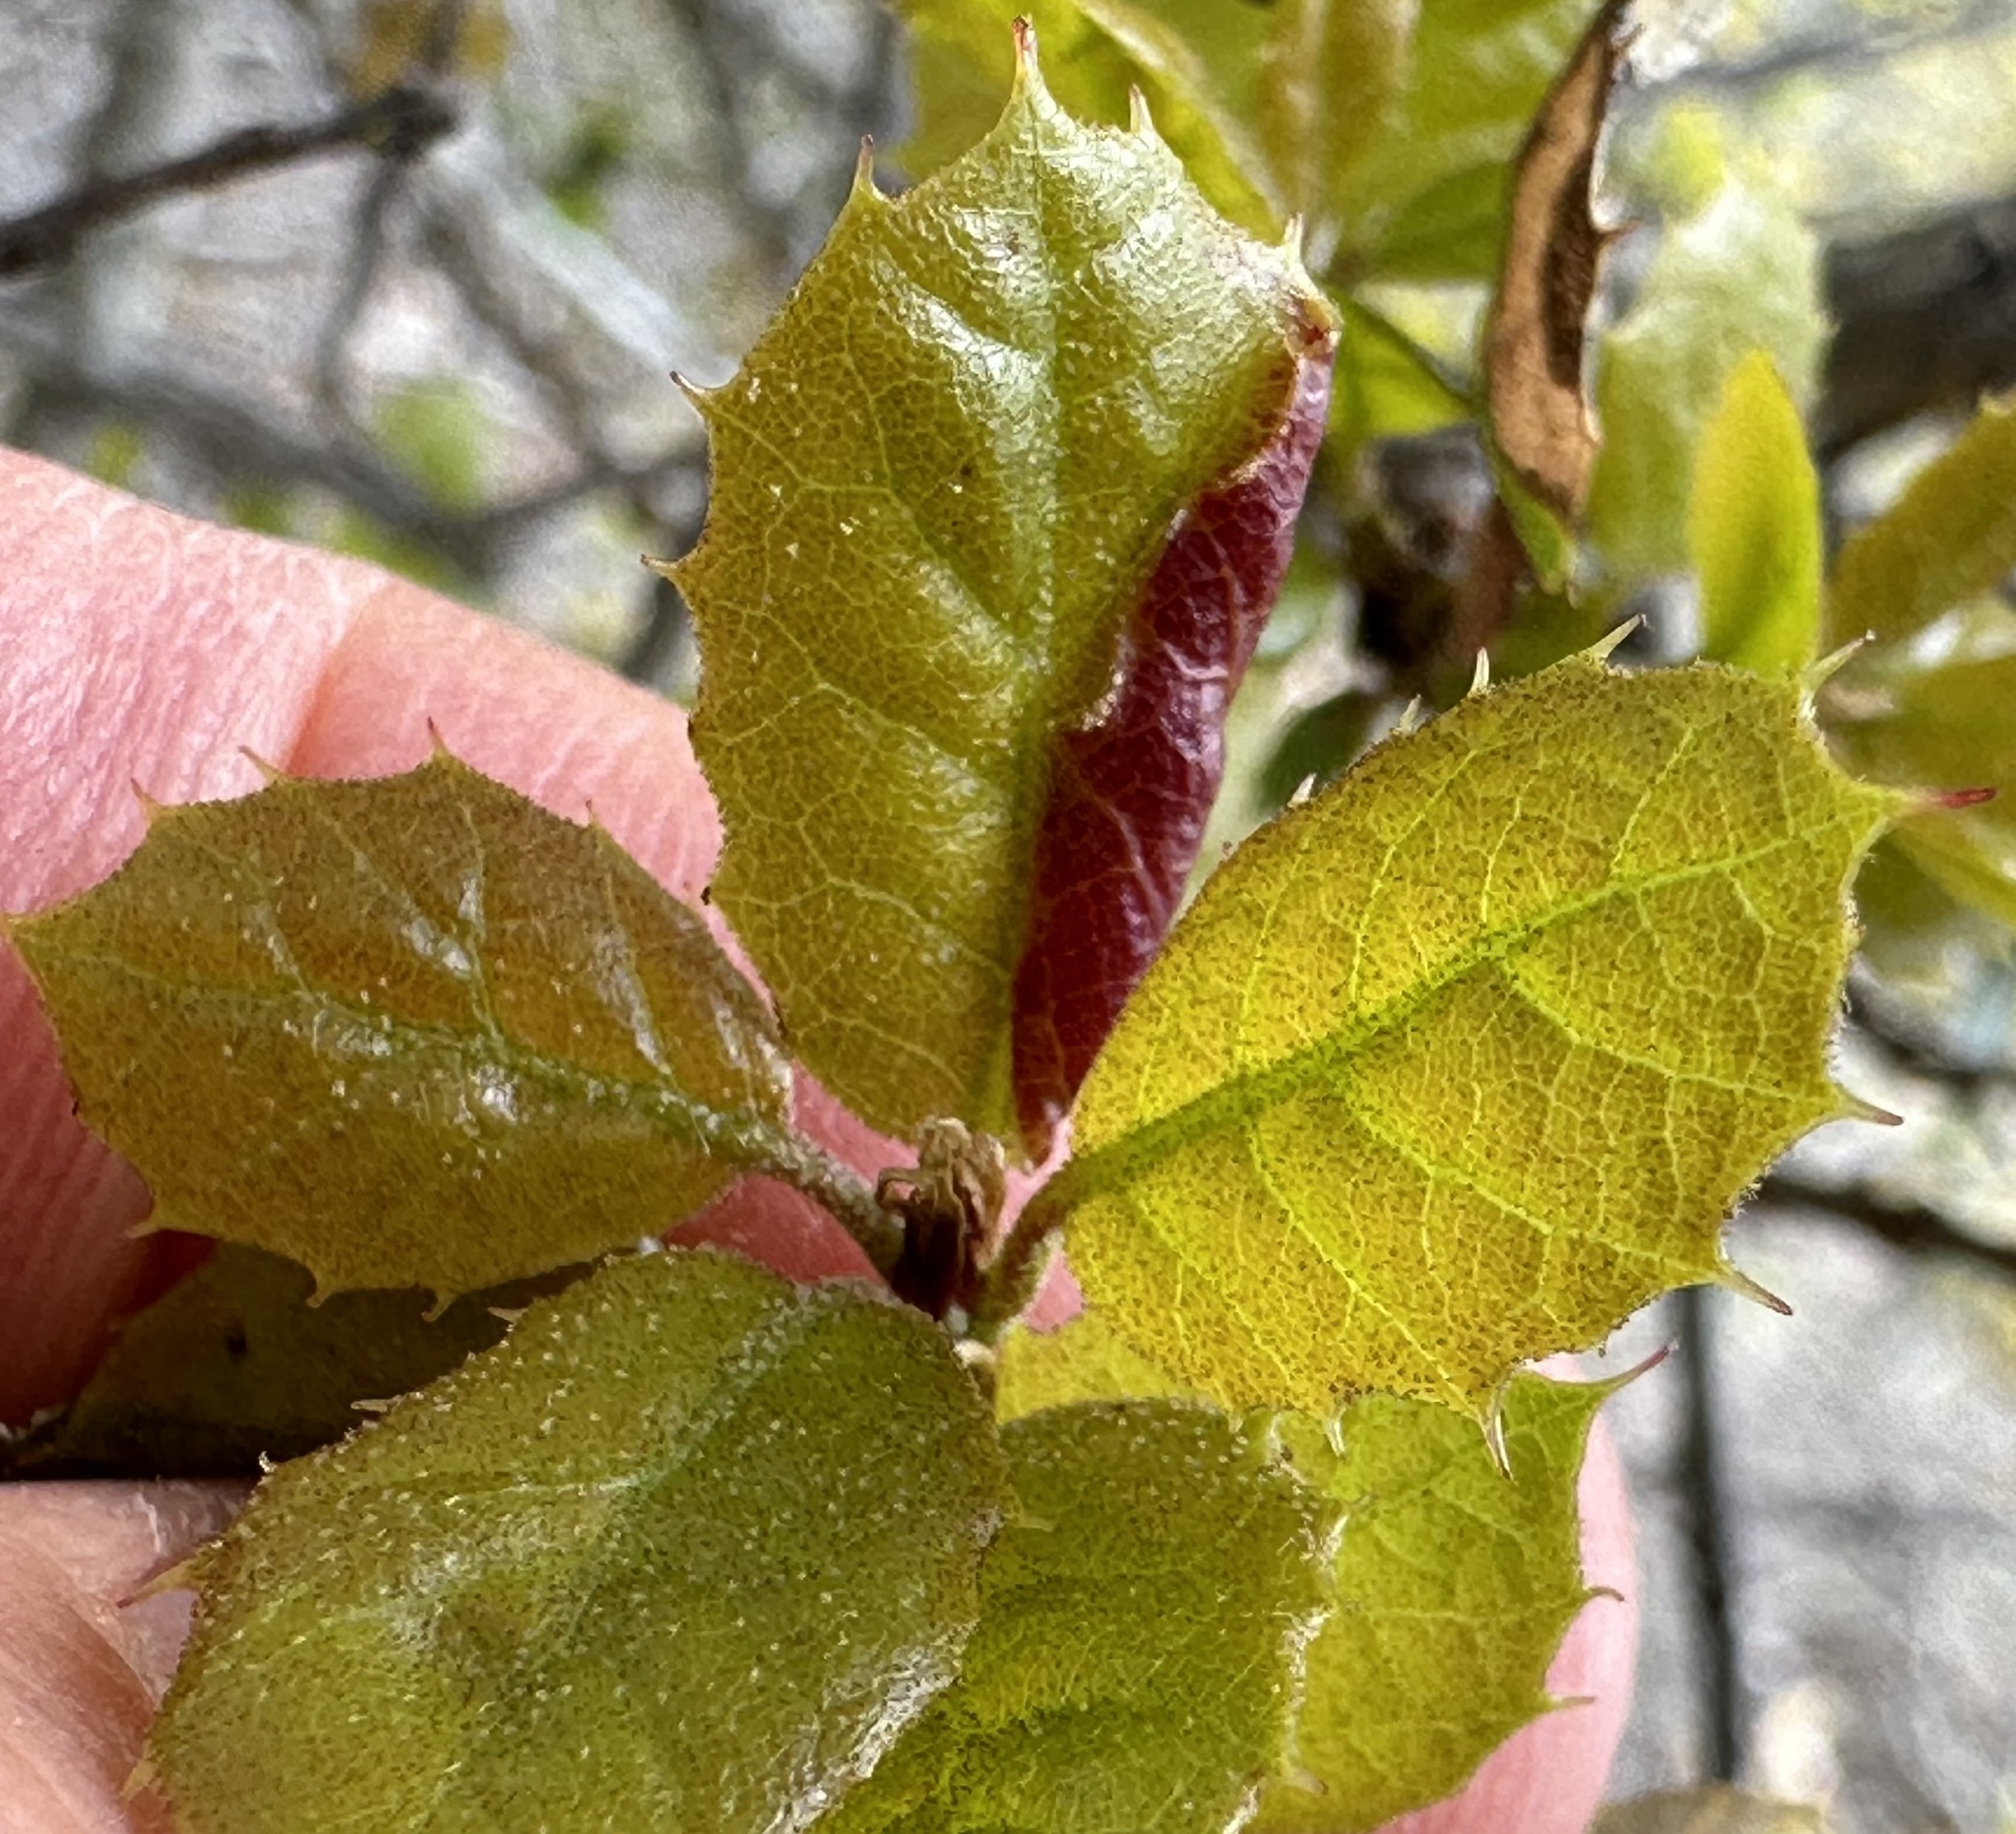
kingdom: Animalia
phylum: Arthropoda
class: Insecta
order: Hemiptera
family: Aphididae
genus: Stegophylla
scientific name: Stegophylla essigi
